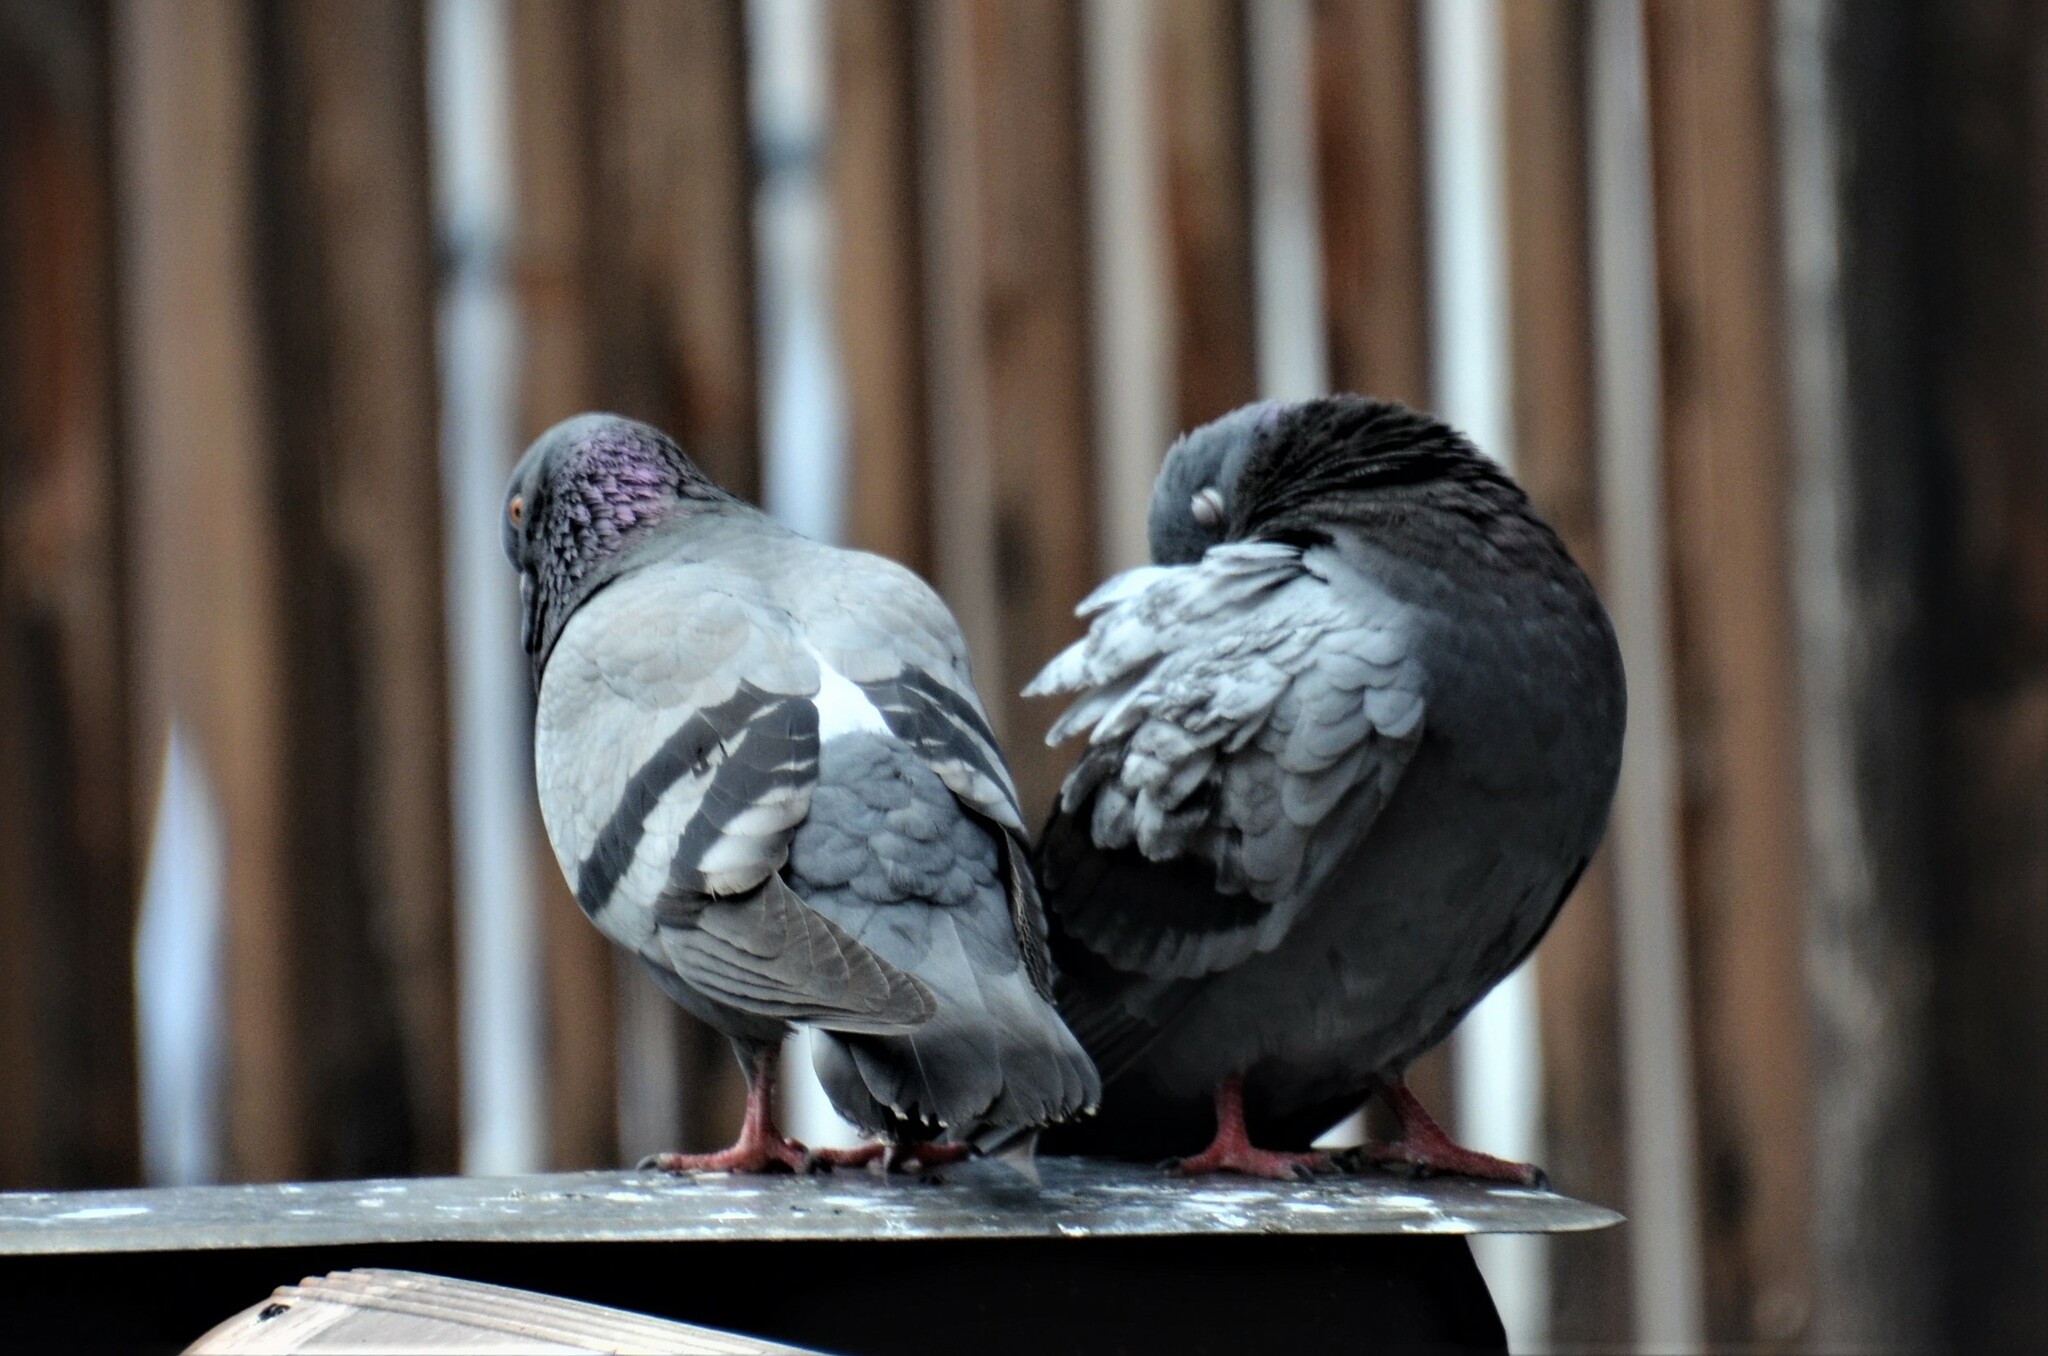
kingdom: Animalia
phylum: Chordata
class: Aves
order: Columbiformes
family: Columbidae
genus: Columba
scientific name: Columba livia
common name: Rock pigeon
